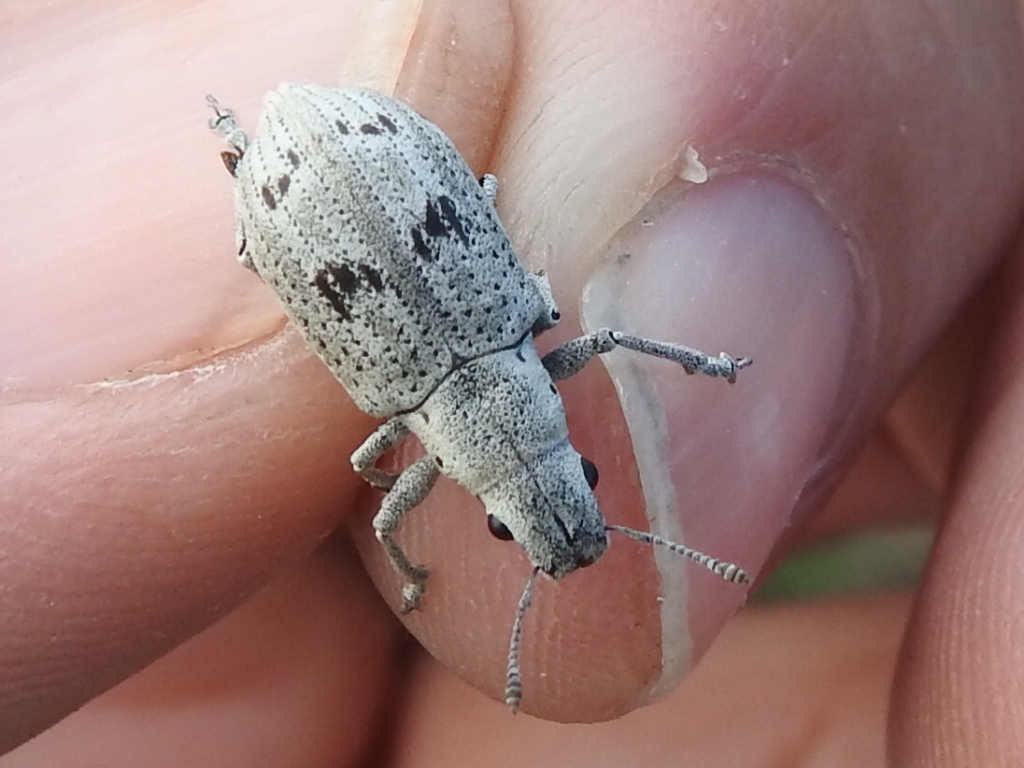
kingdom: Animalia
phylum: Arthropoda
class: Insecta
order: Coleoptera
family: Curculionidae
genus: Ericydeus
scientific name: Ericydeus lautus
